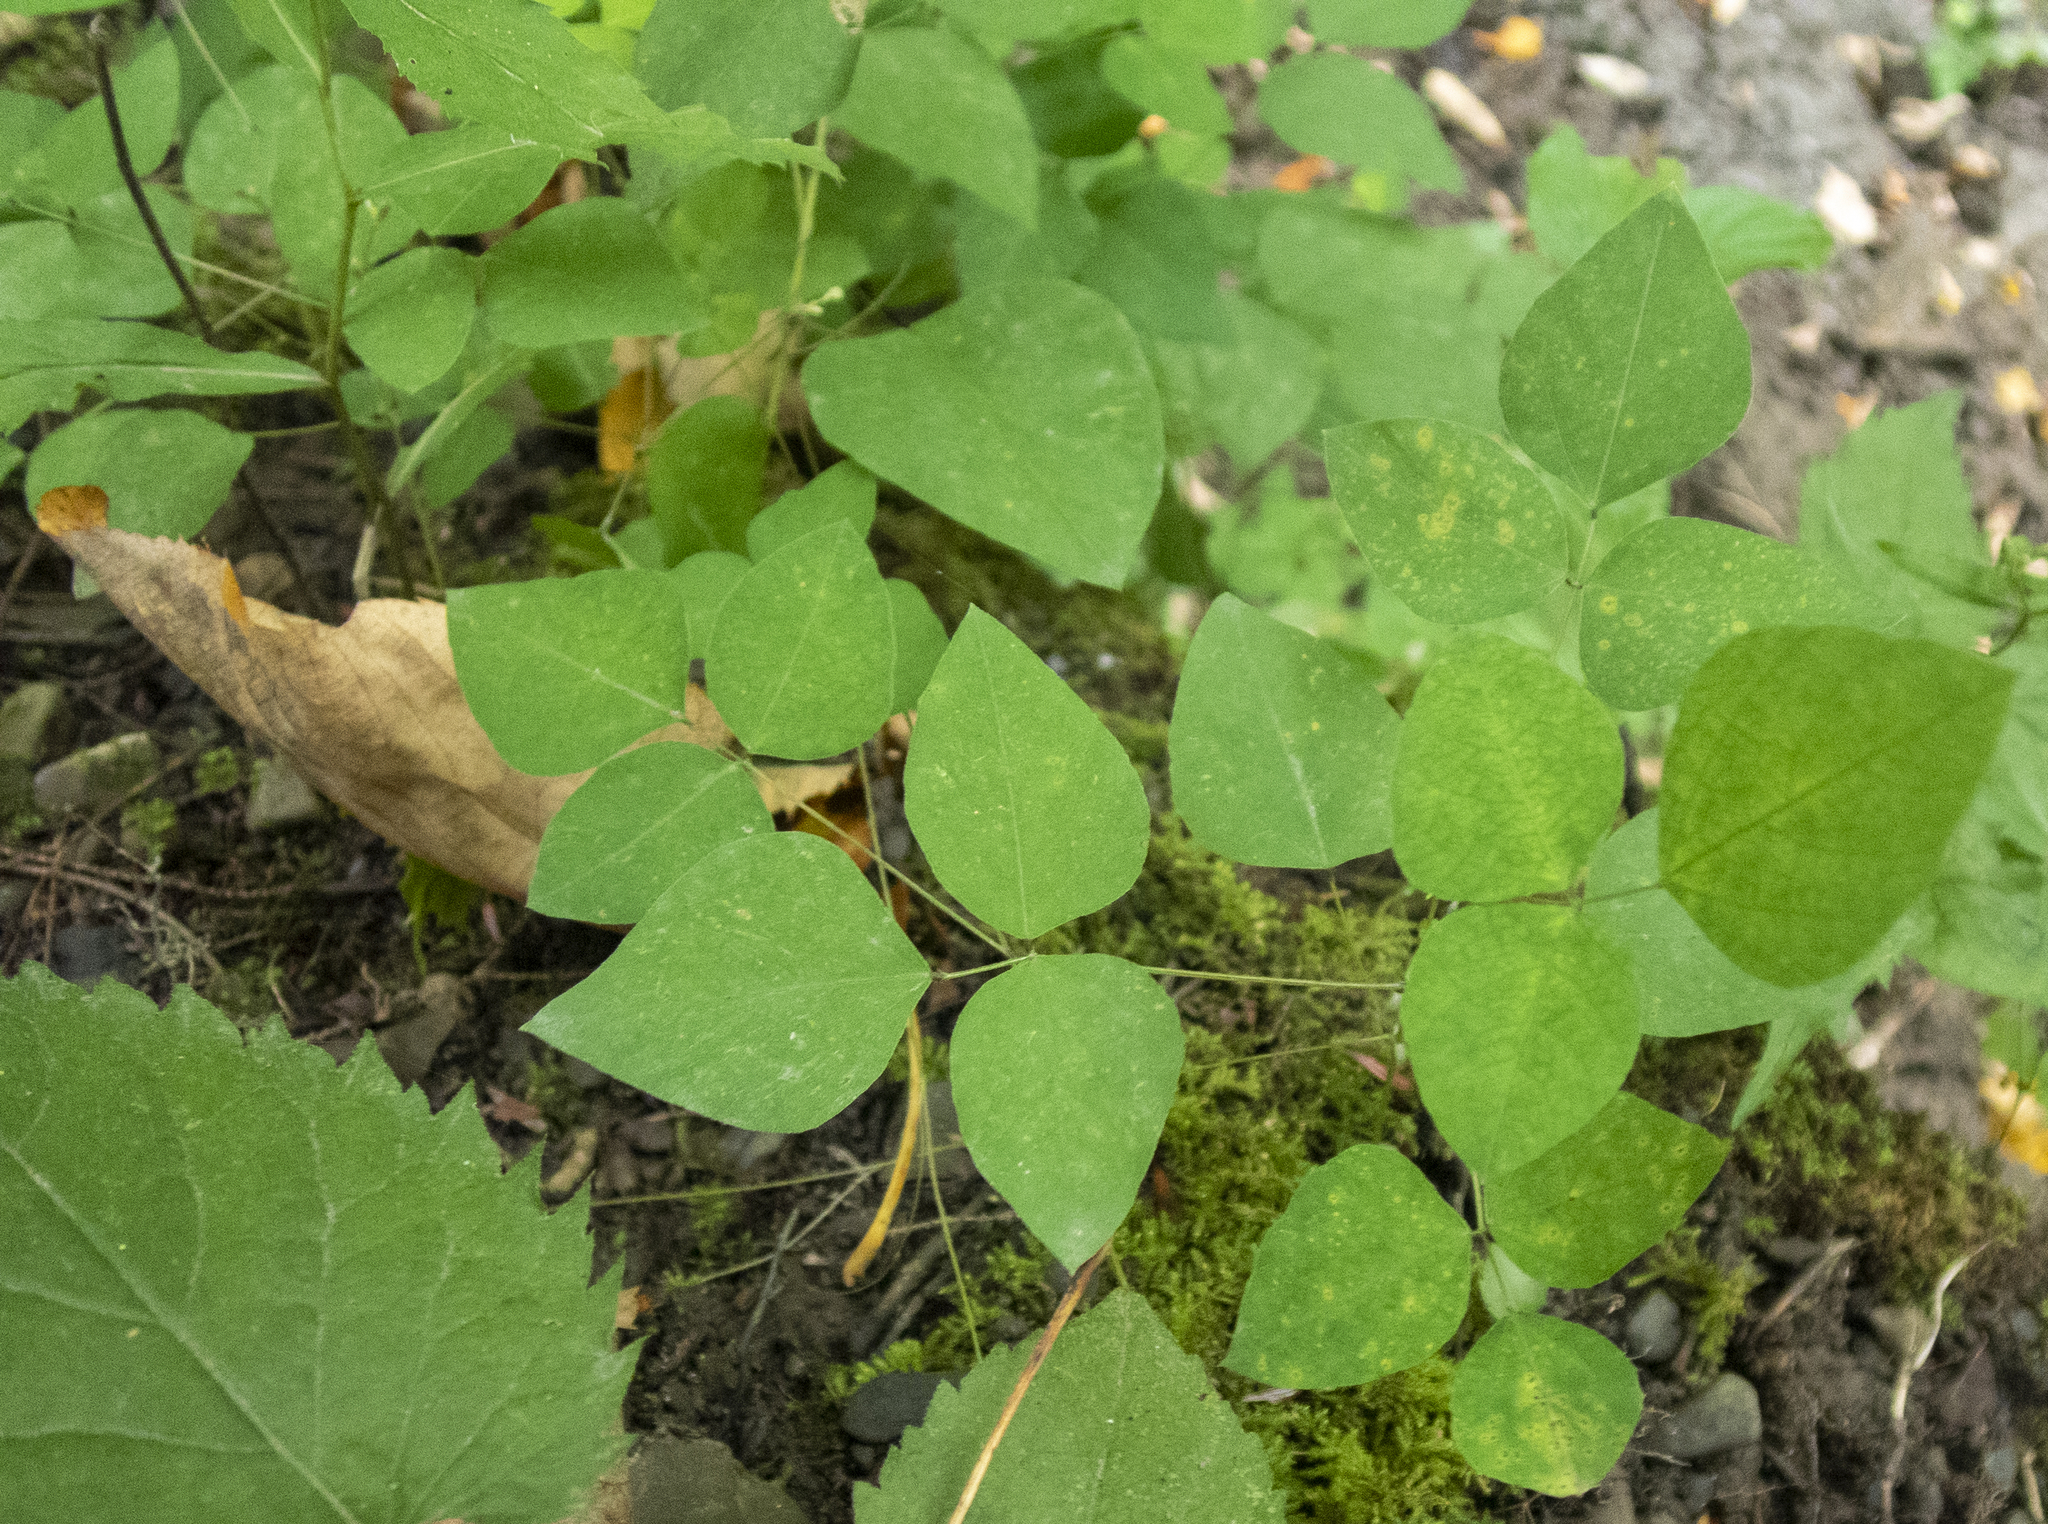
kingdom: Plantae
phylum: Tracheophyta
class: Magnoliopsida
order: Fabales
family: Fabaceae
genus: Amphicarpaea
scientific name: Amphicarpaea bracteata
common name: American hog peanut
